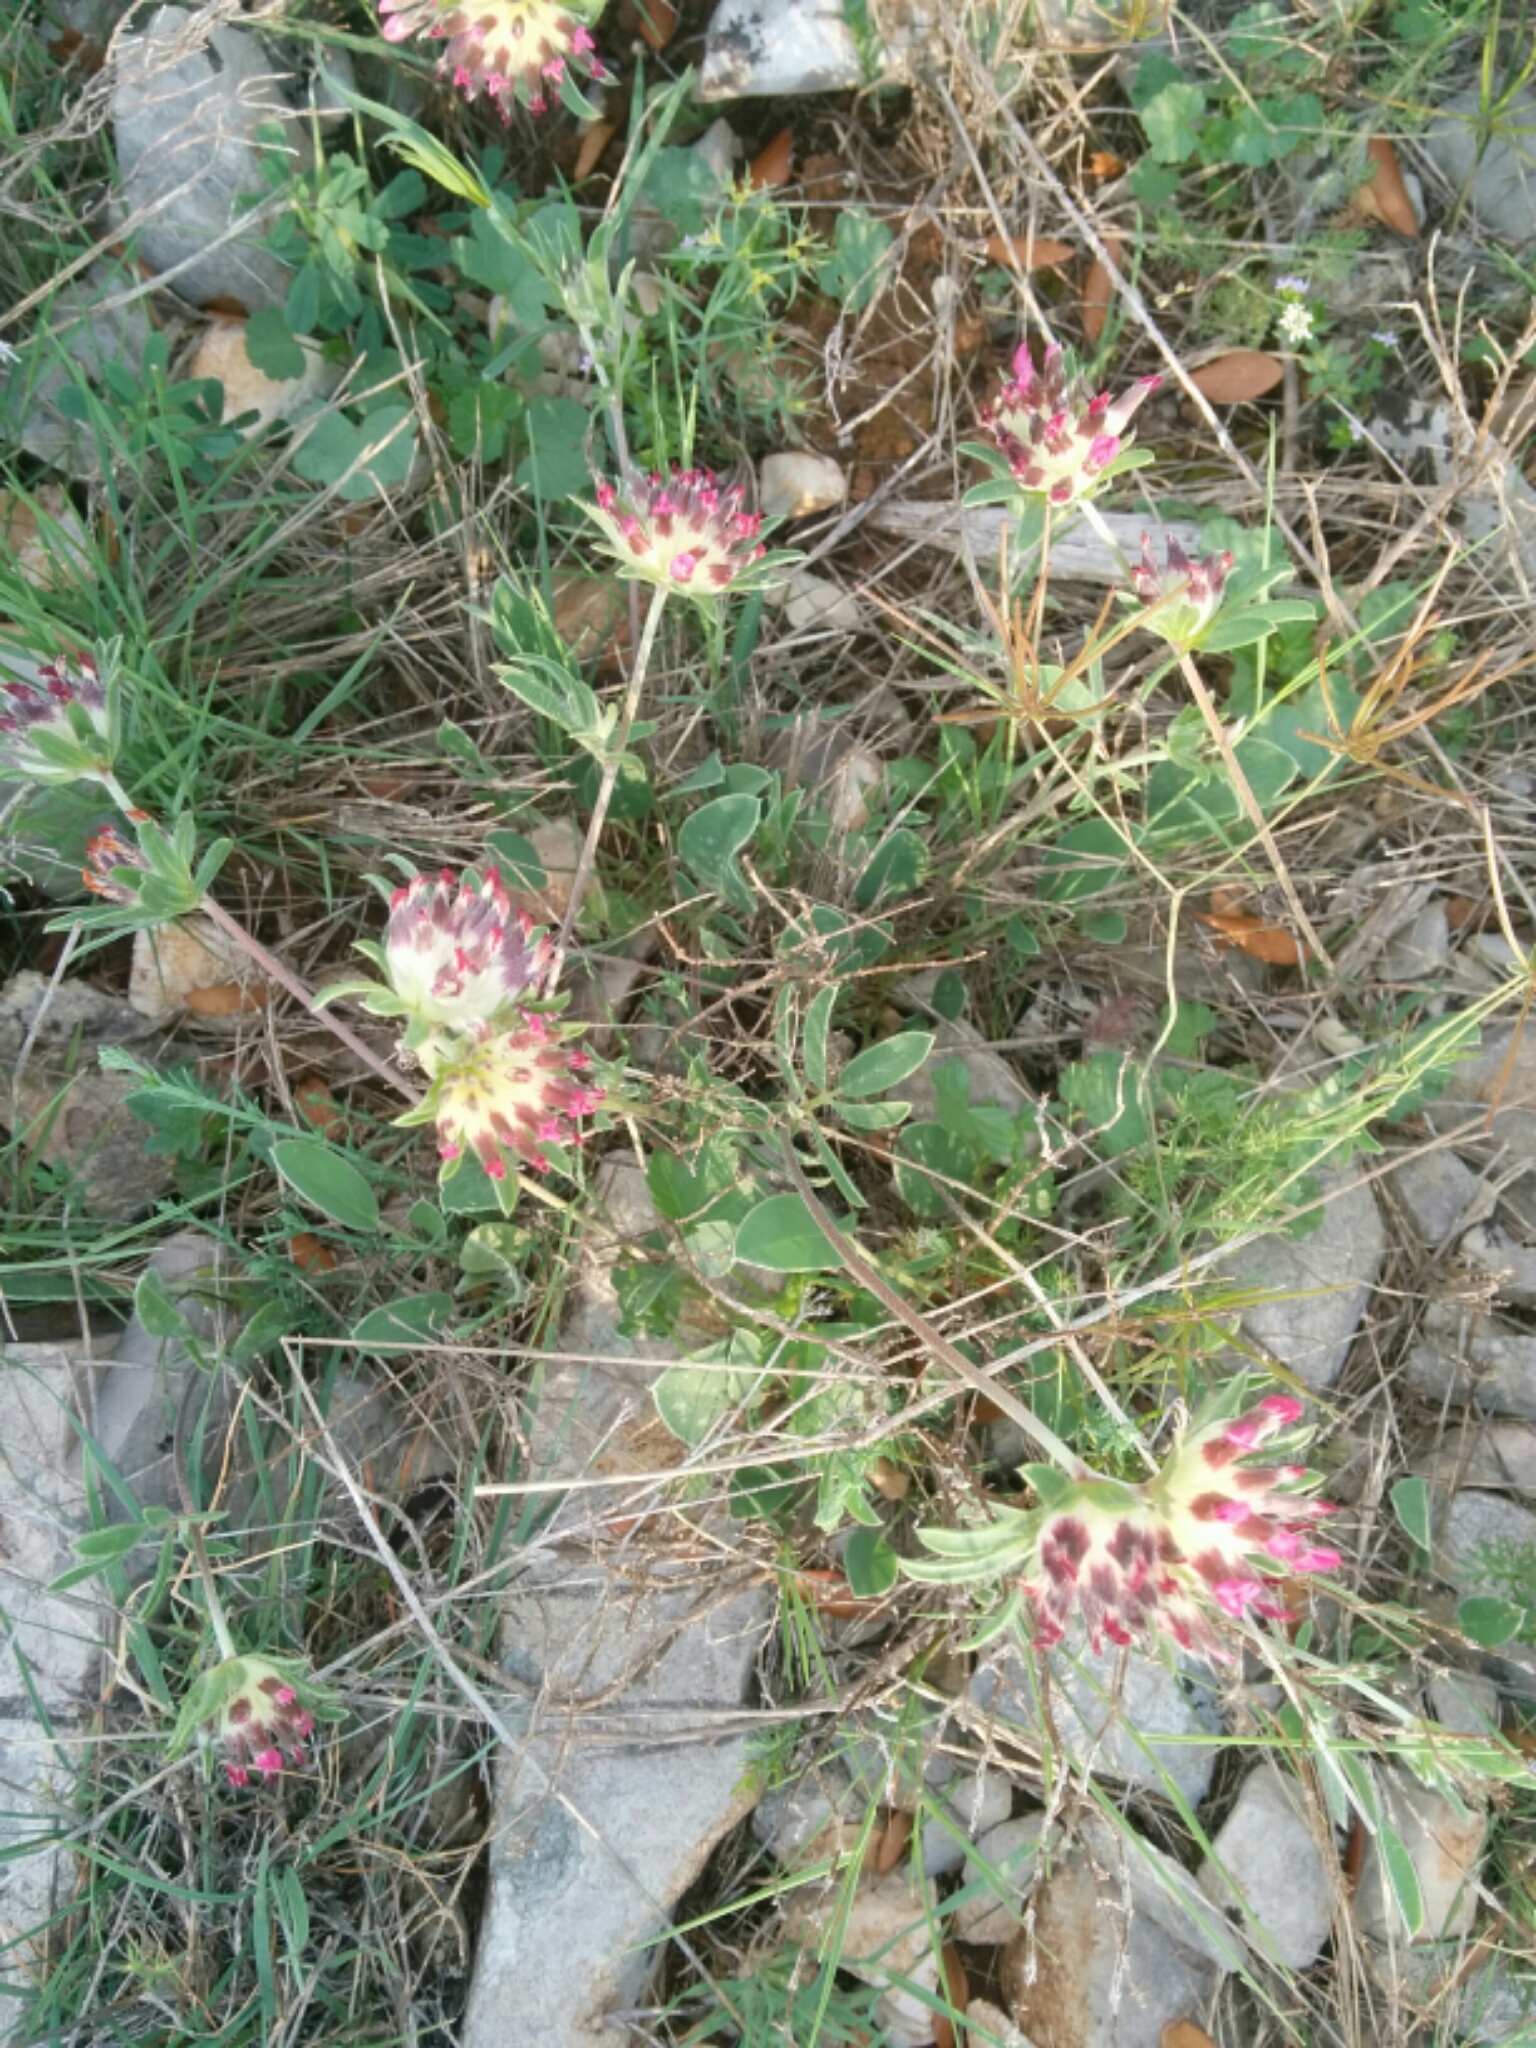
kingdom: Plantae
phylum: Tracheophyta
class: Magnoliopsida
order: Fabales
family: Fabaceae
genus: Anthyllis
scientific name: Anthyllis vulneraria
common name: Kidney vetch
